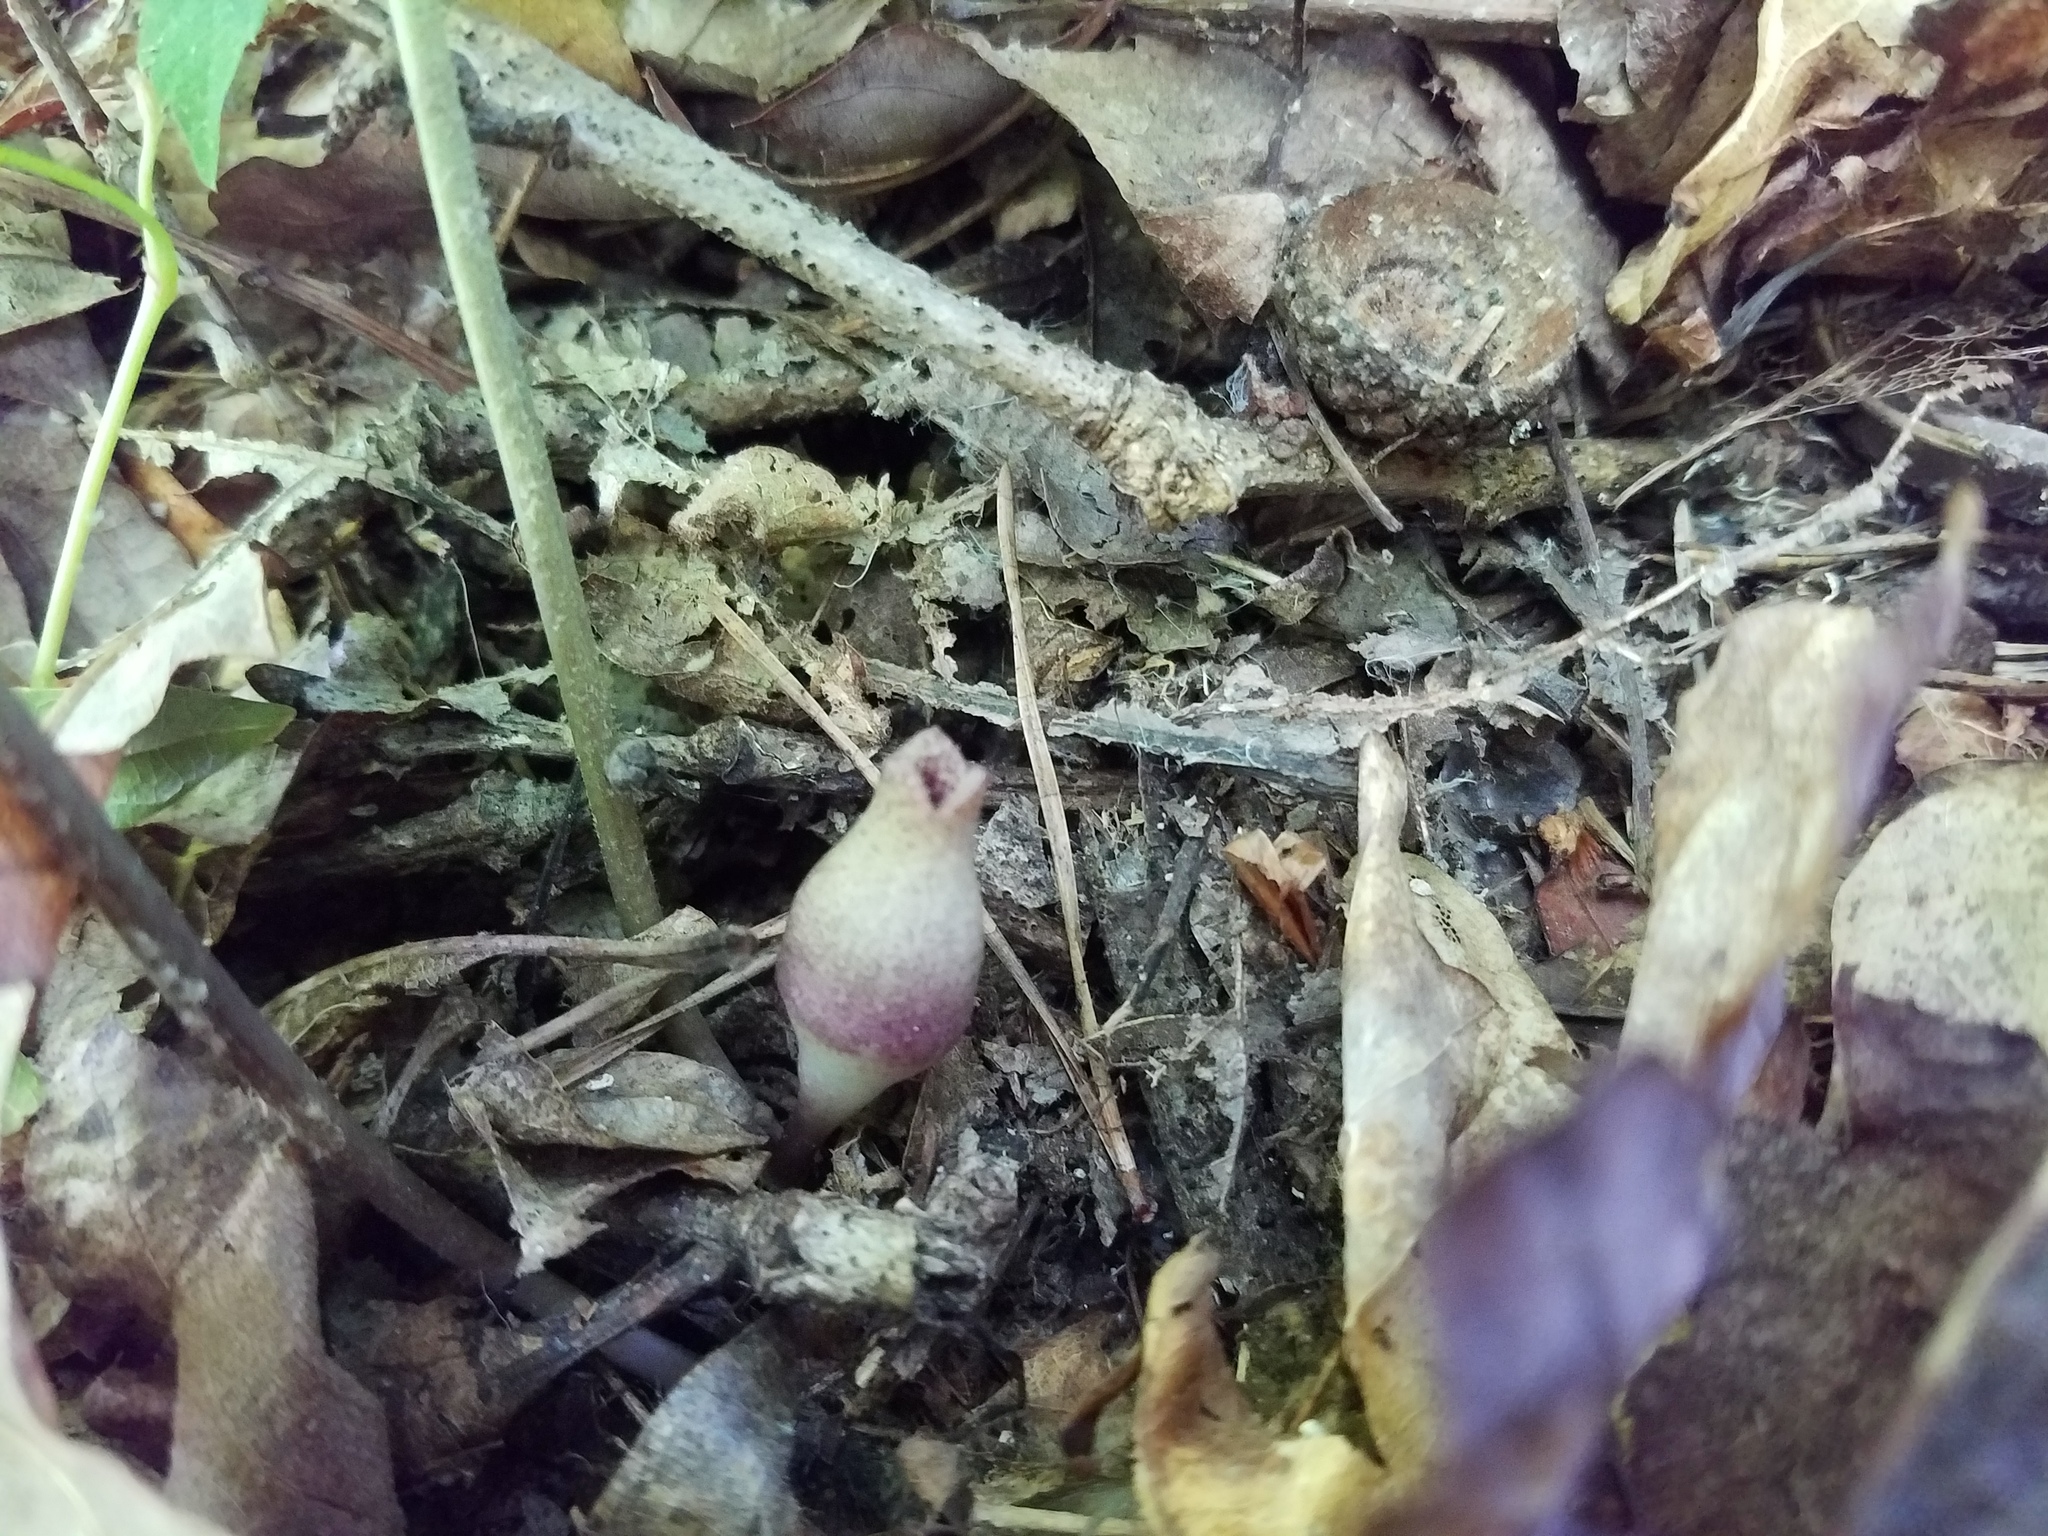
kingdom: Plantae
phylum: Tracheophyta
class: Magnoliopsida
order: Piperales
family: Aristolochiaceae
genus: Hexastylis
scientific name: Hexastylis arifolia
